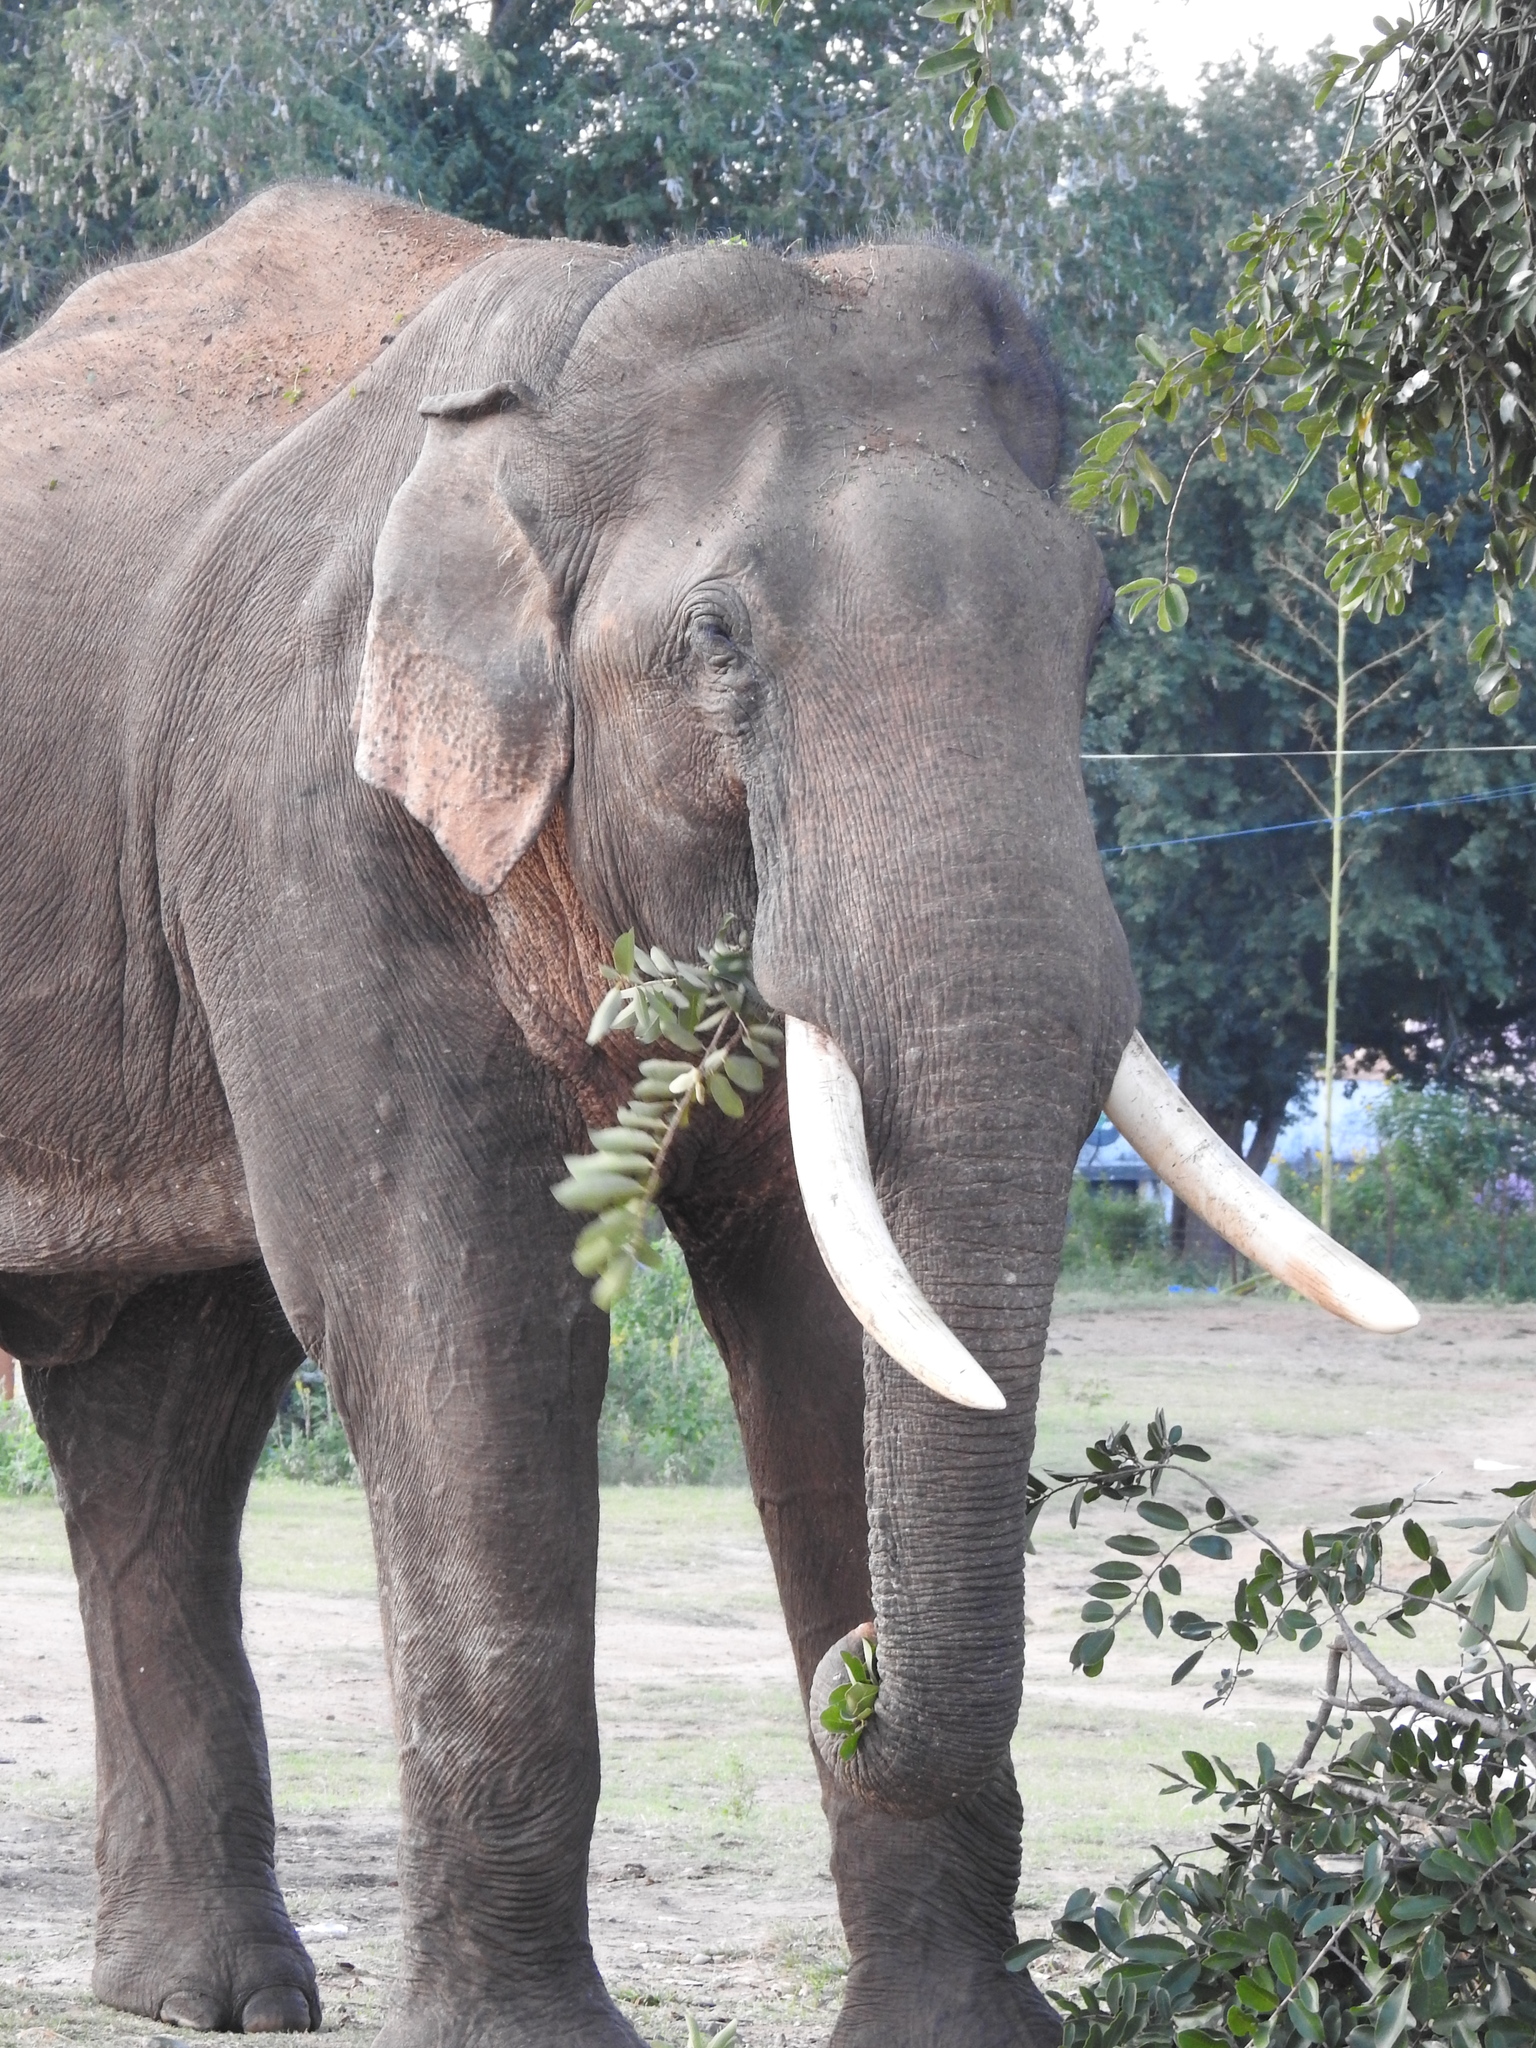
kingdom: Animalia
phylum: Chordata
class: Mammalia
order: Proboscidea
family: Elephantidae
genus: Elephas
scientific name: Elephas maximus
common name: Asian elephant
